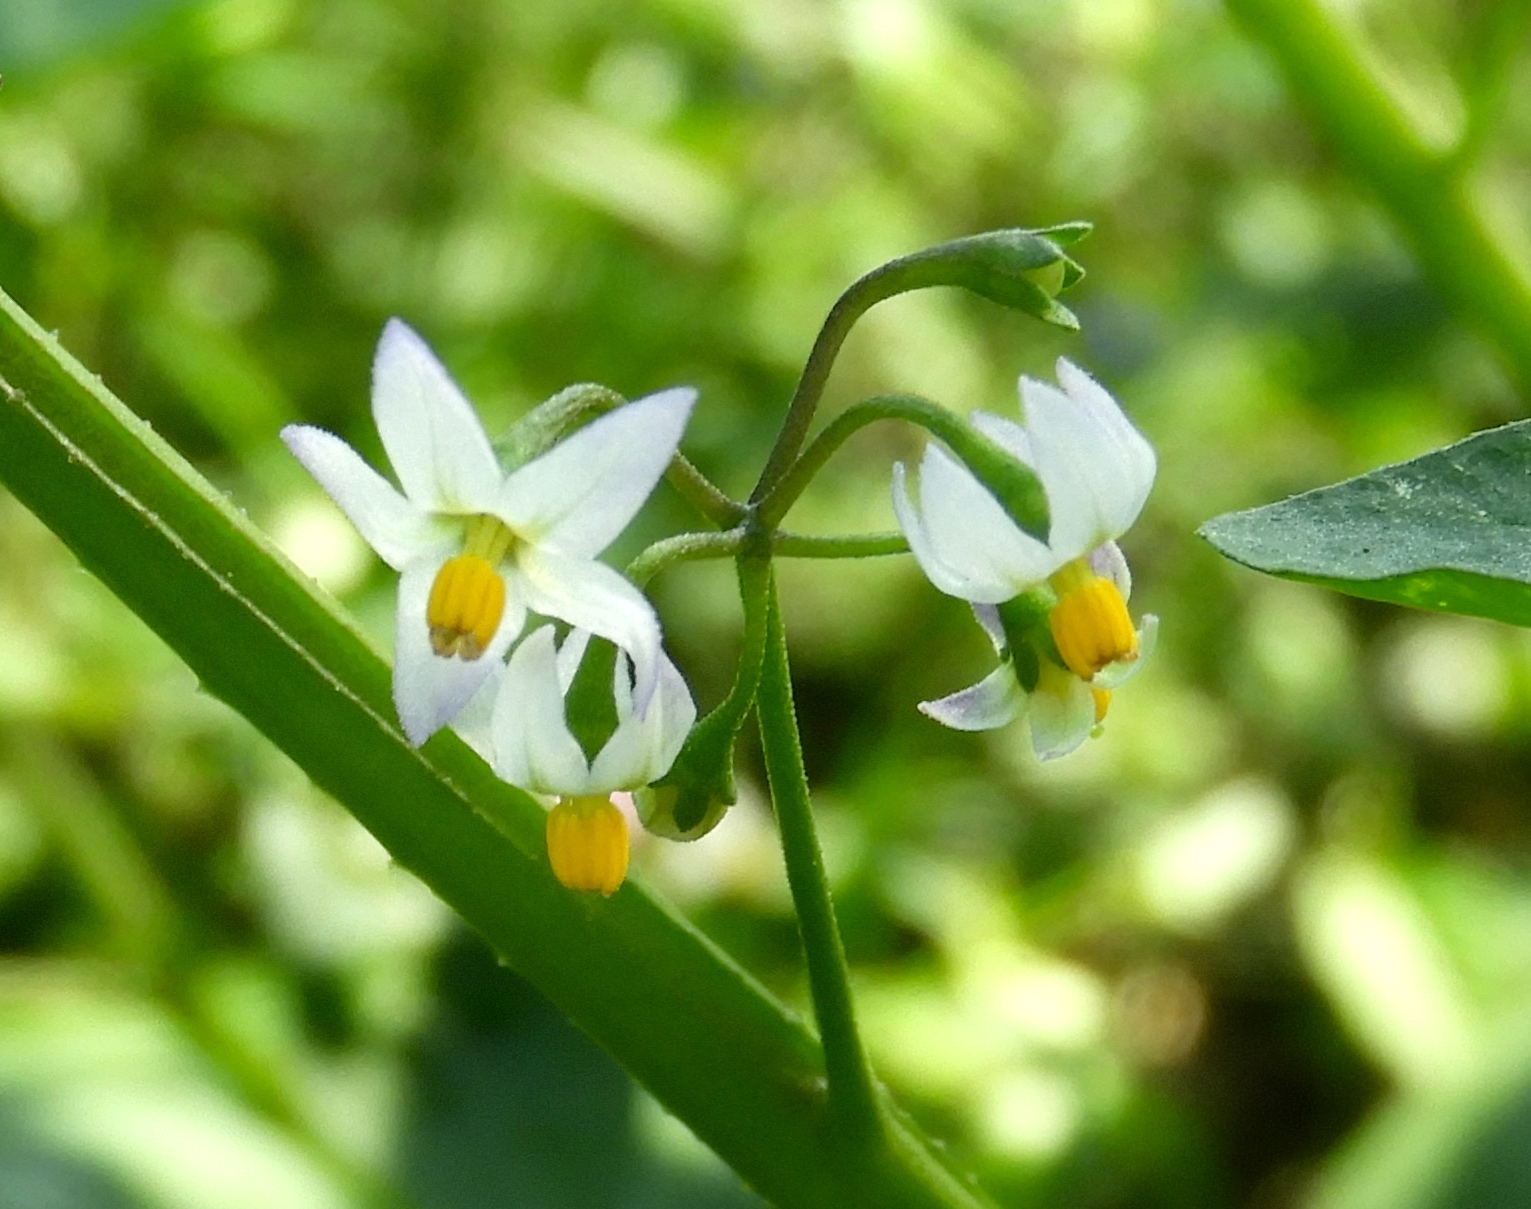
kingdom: Plantae
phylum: Tracheophyta
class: Magnoliopsida
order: Solanales
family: Solanaceae
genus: Solanum
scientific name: Solanum americanum
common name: American black nightshade
